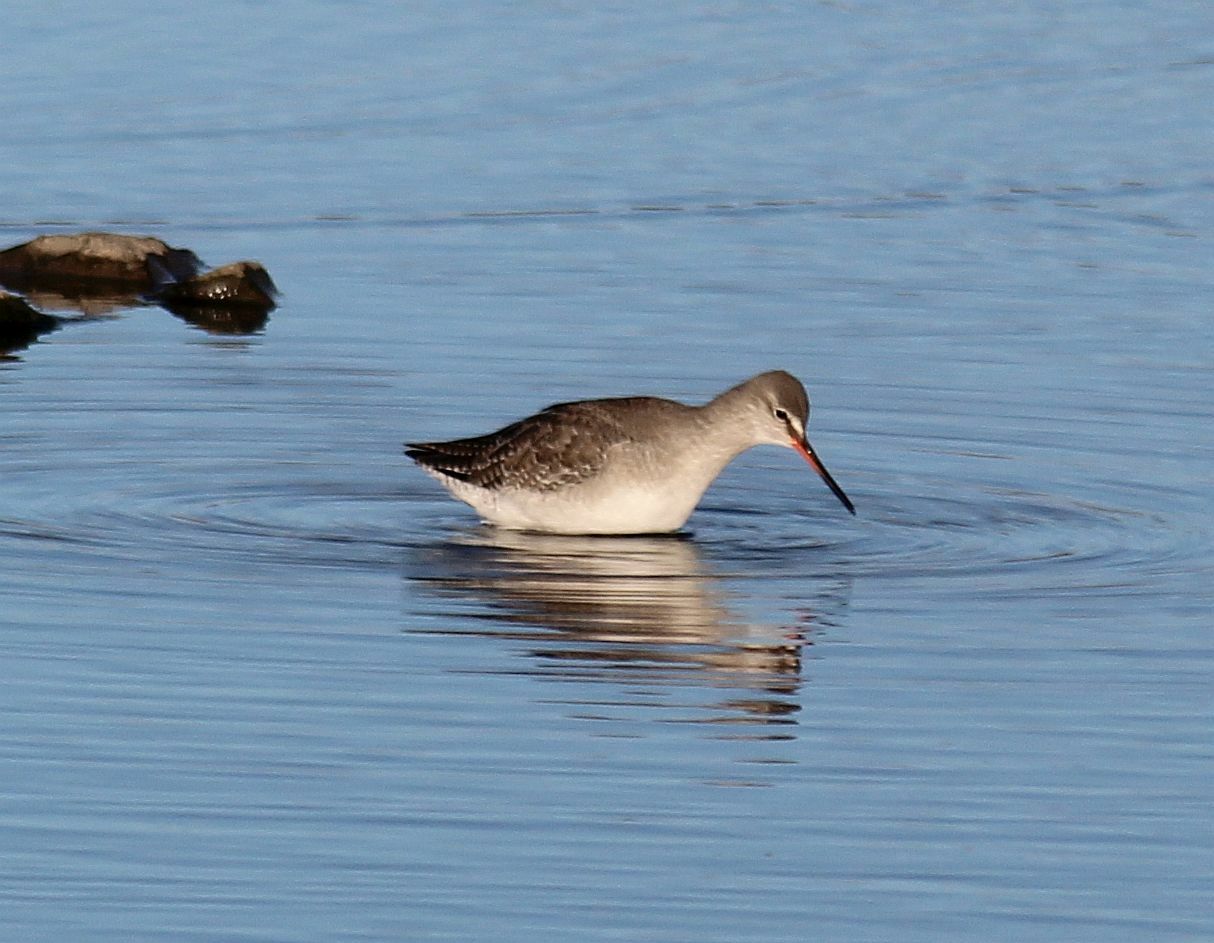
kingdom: Animalia
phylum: Chordata
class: Aves
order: Charadriiformes
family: Scolopacidae
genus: Tringa
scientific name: Tringa erythropus
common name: Spotted redshank
